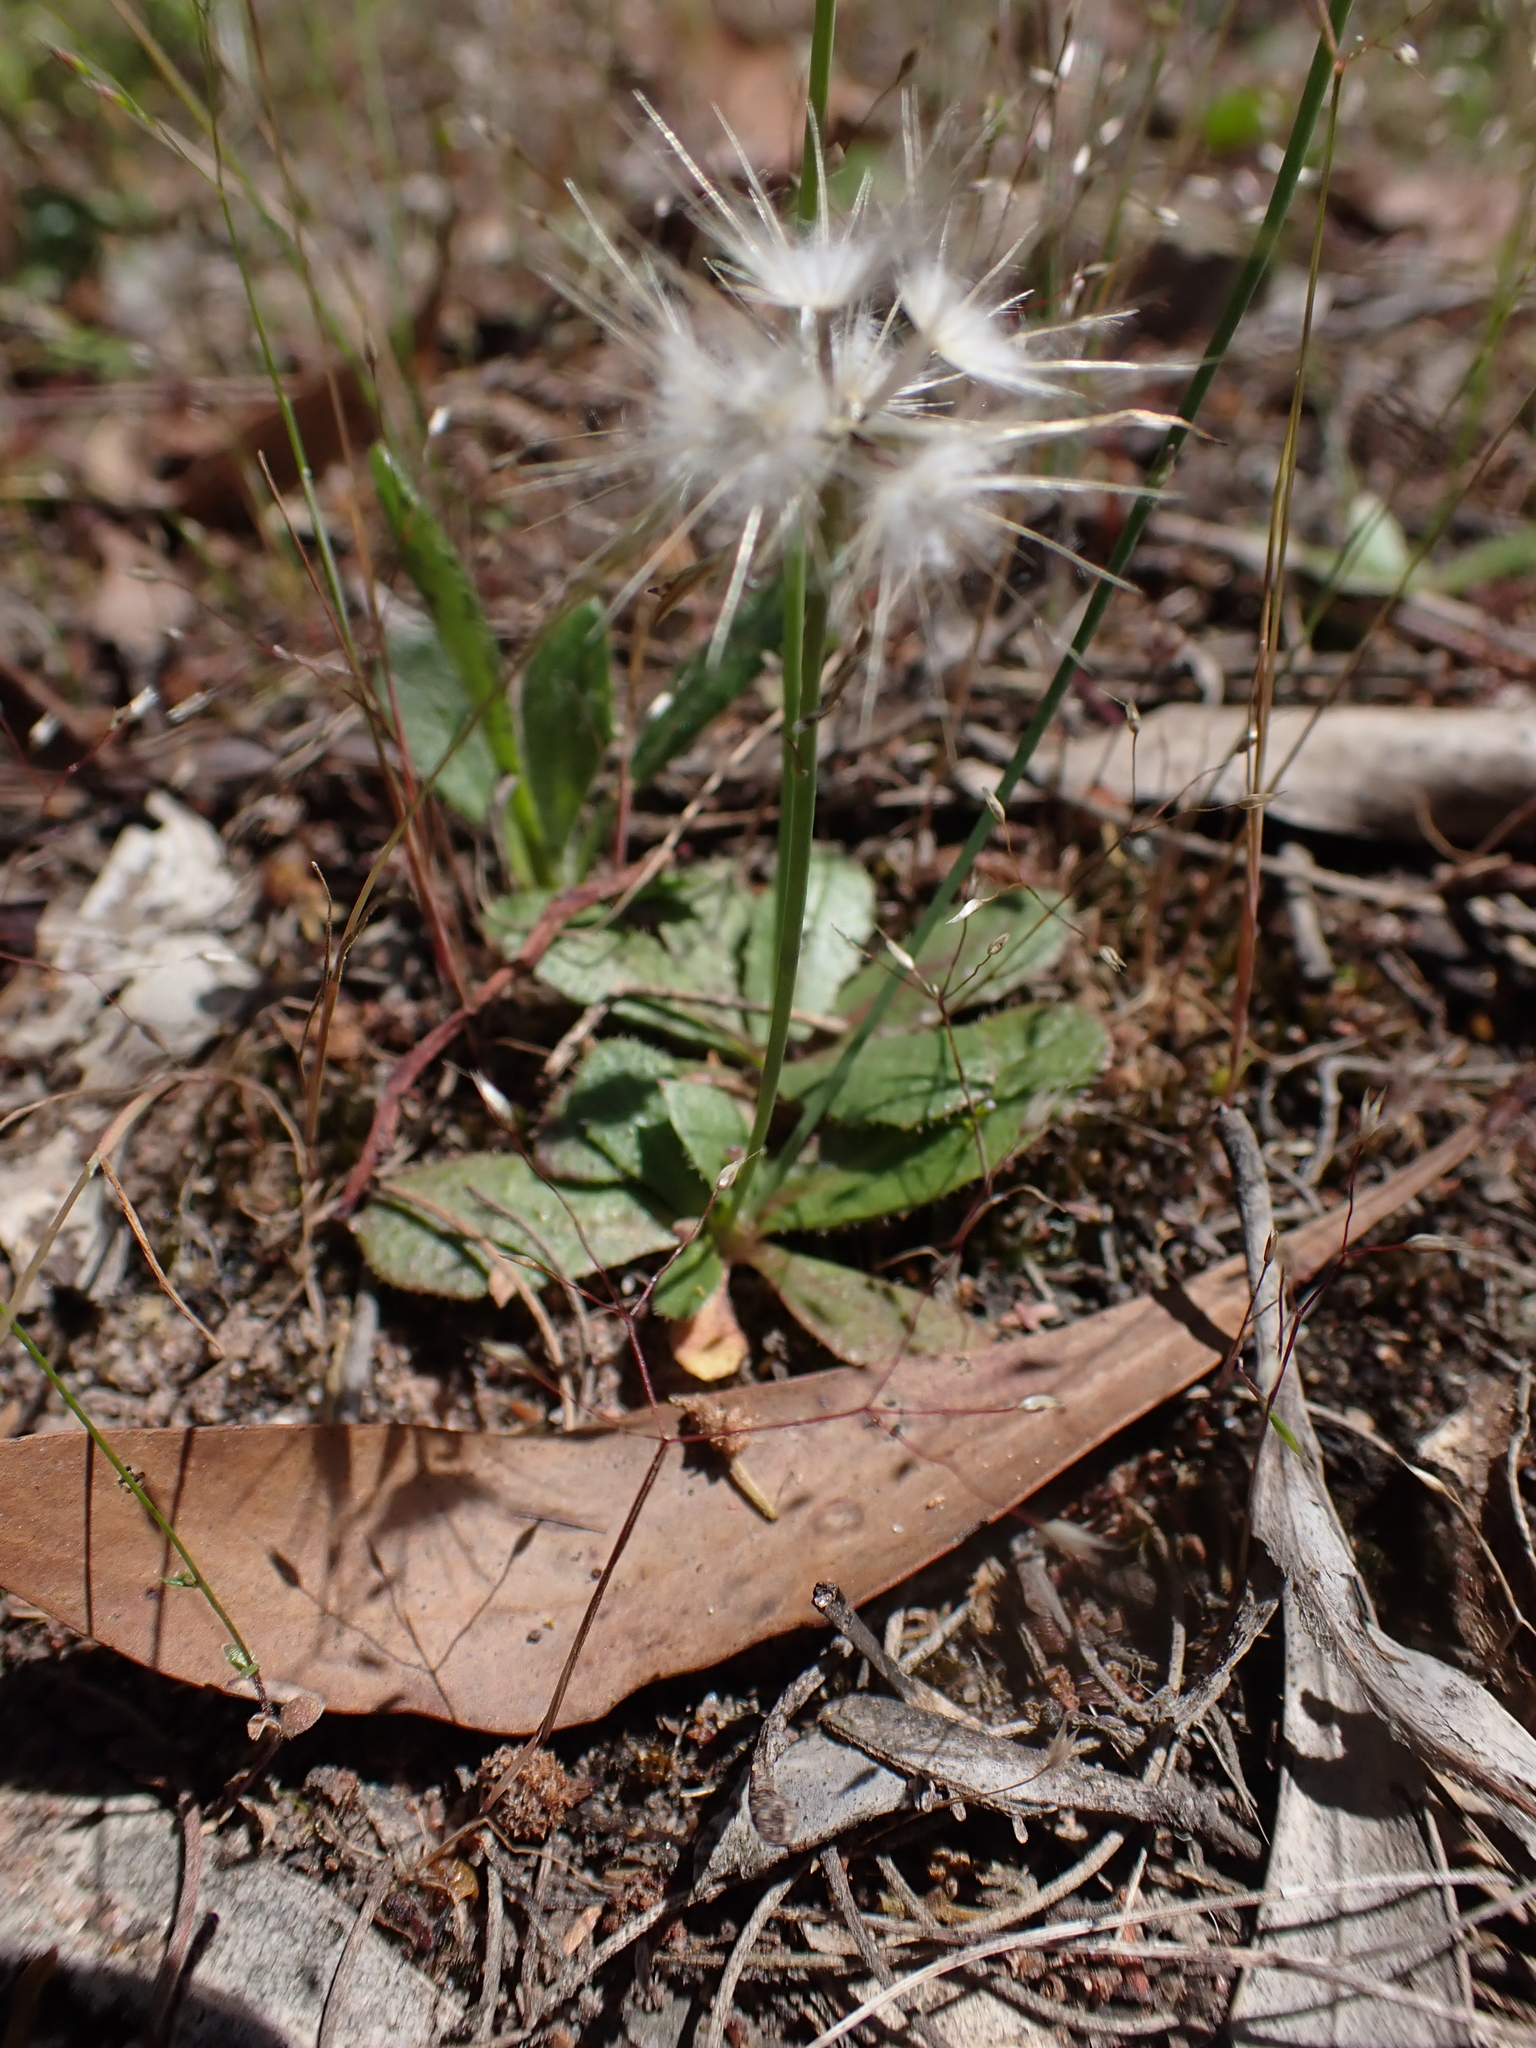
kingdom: Plantae
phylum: Tracheophyta
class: Magnoliopsida
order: Asterales
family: Asteraceae
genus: Hypochaeris
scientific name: Hypochaeris glabra
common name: Smooth catsear
